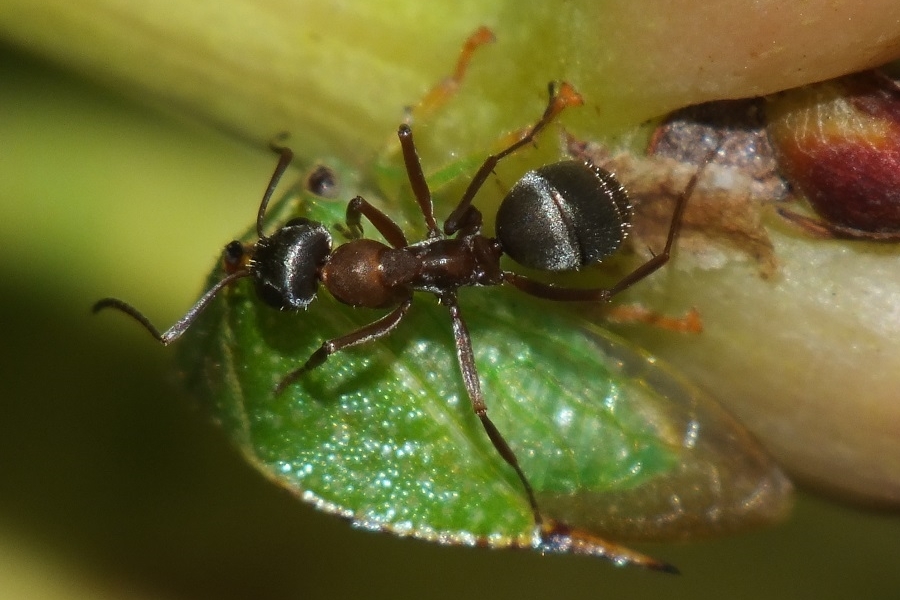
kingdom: Animalia
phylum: Arthropoda
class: Insecta
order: Hymenoptera
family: Formicidae
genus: Formica
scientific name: Formica cinerea
